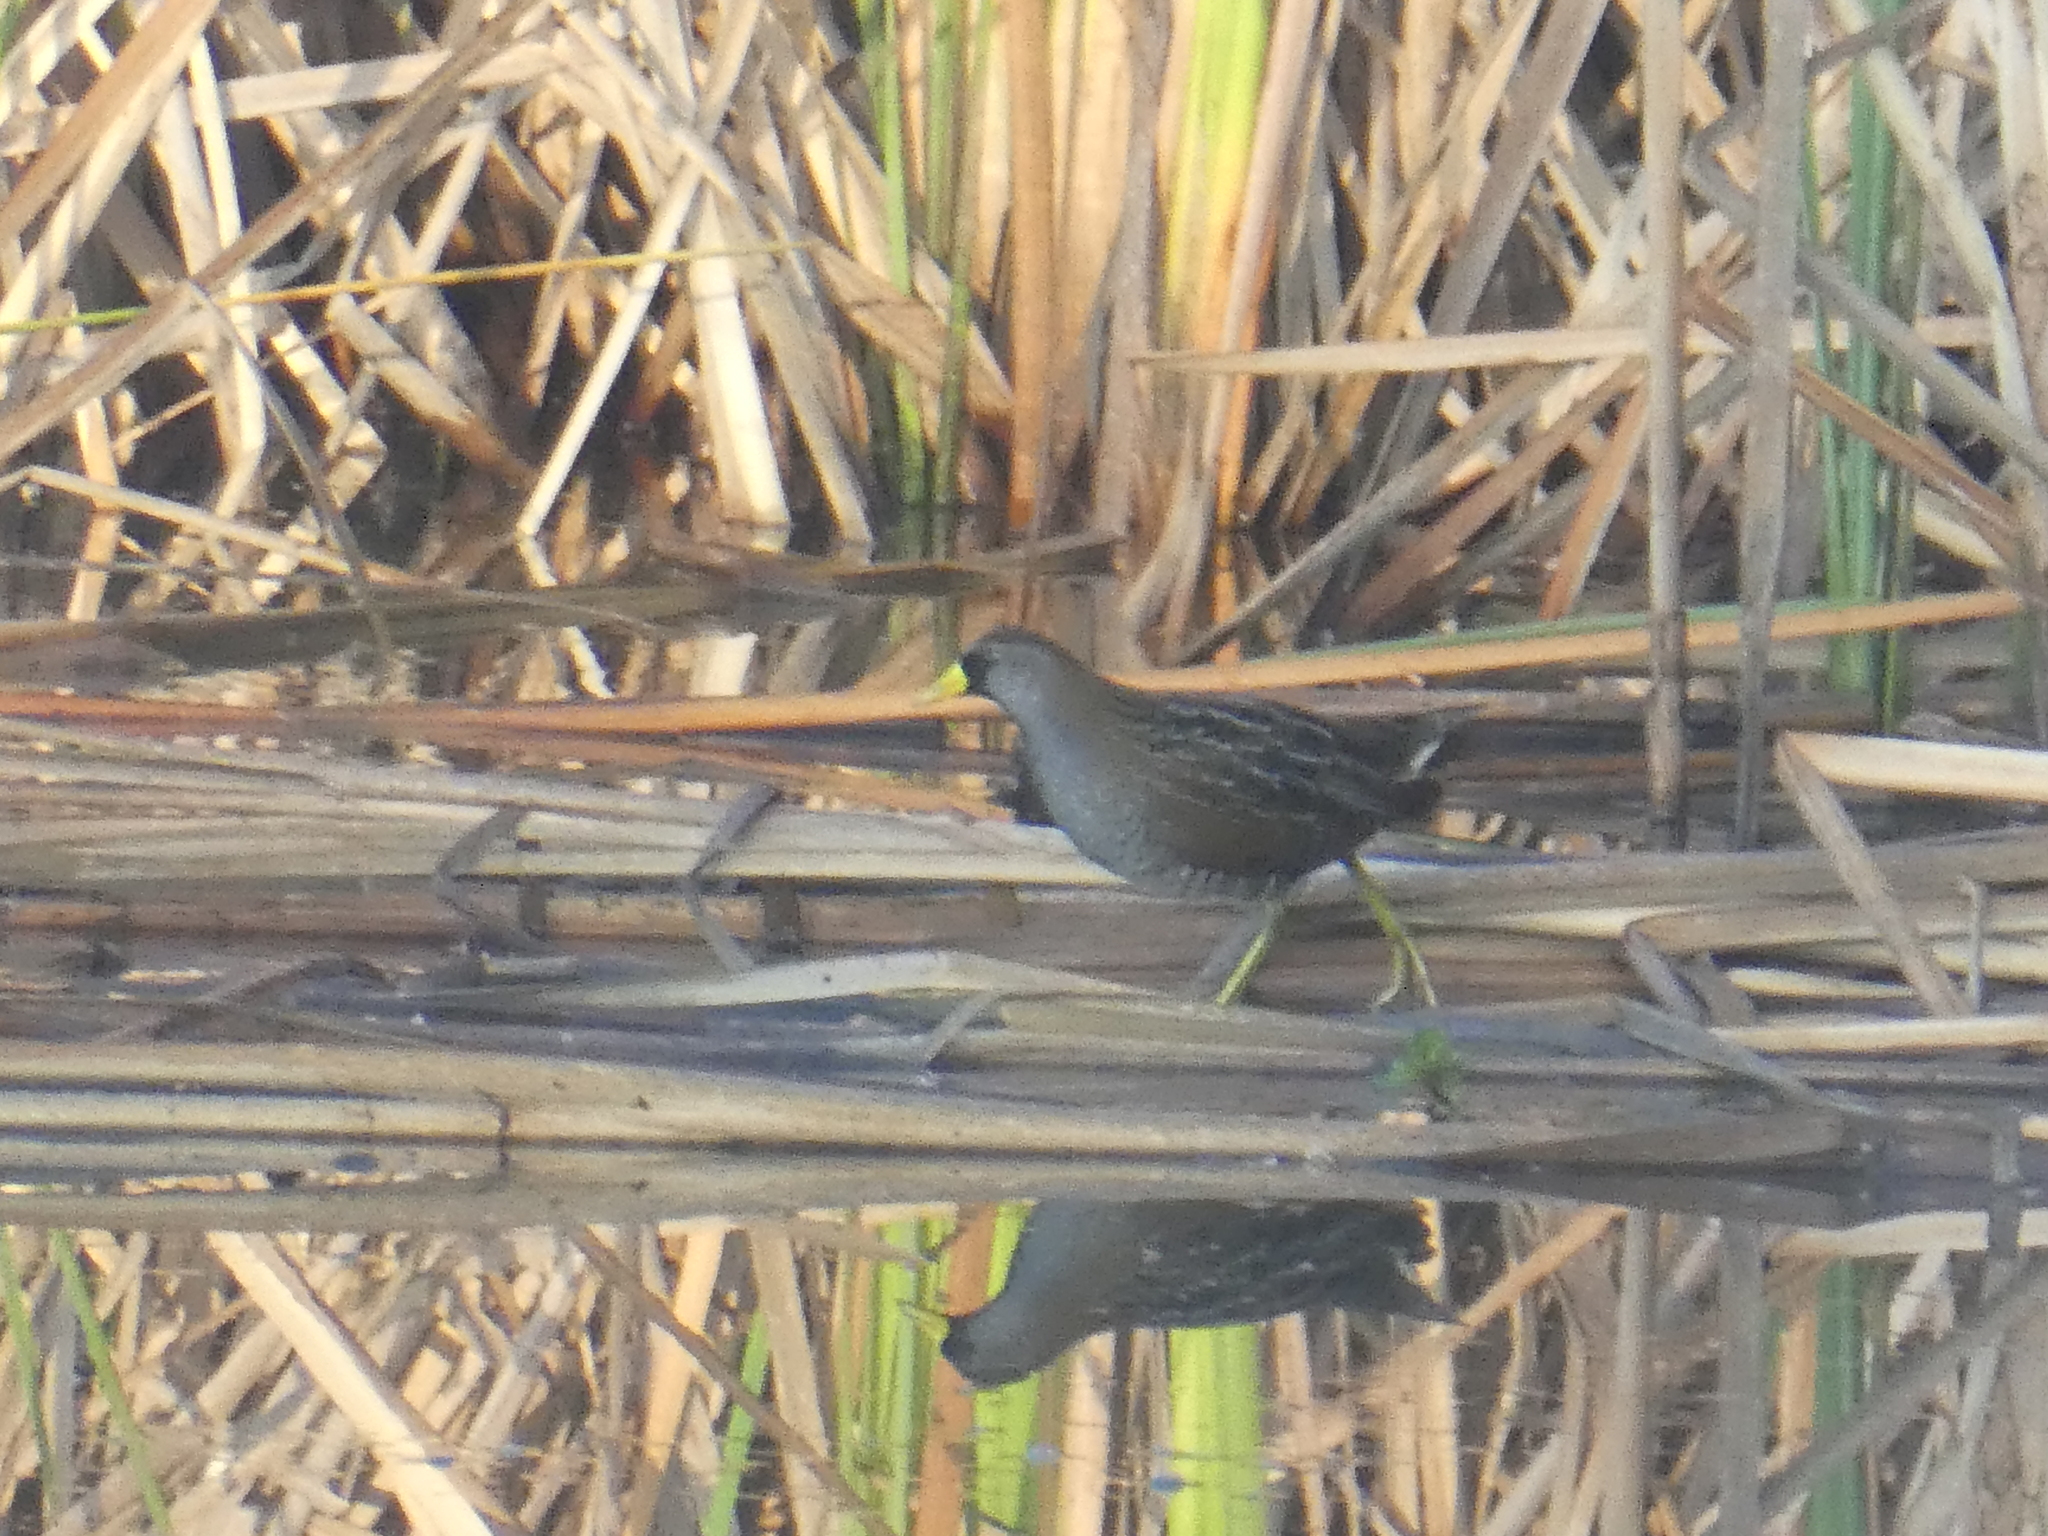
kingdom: Animalia
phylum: Chordata
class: Aves
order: Gruiformes
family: Rallidae
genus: Porzana
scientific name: Porzana carolina
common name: Sora
